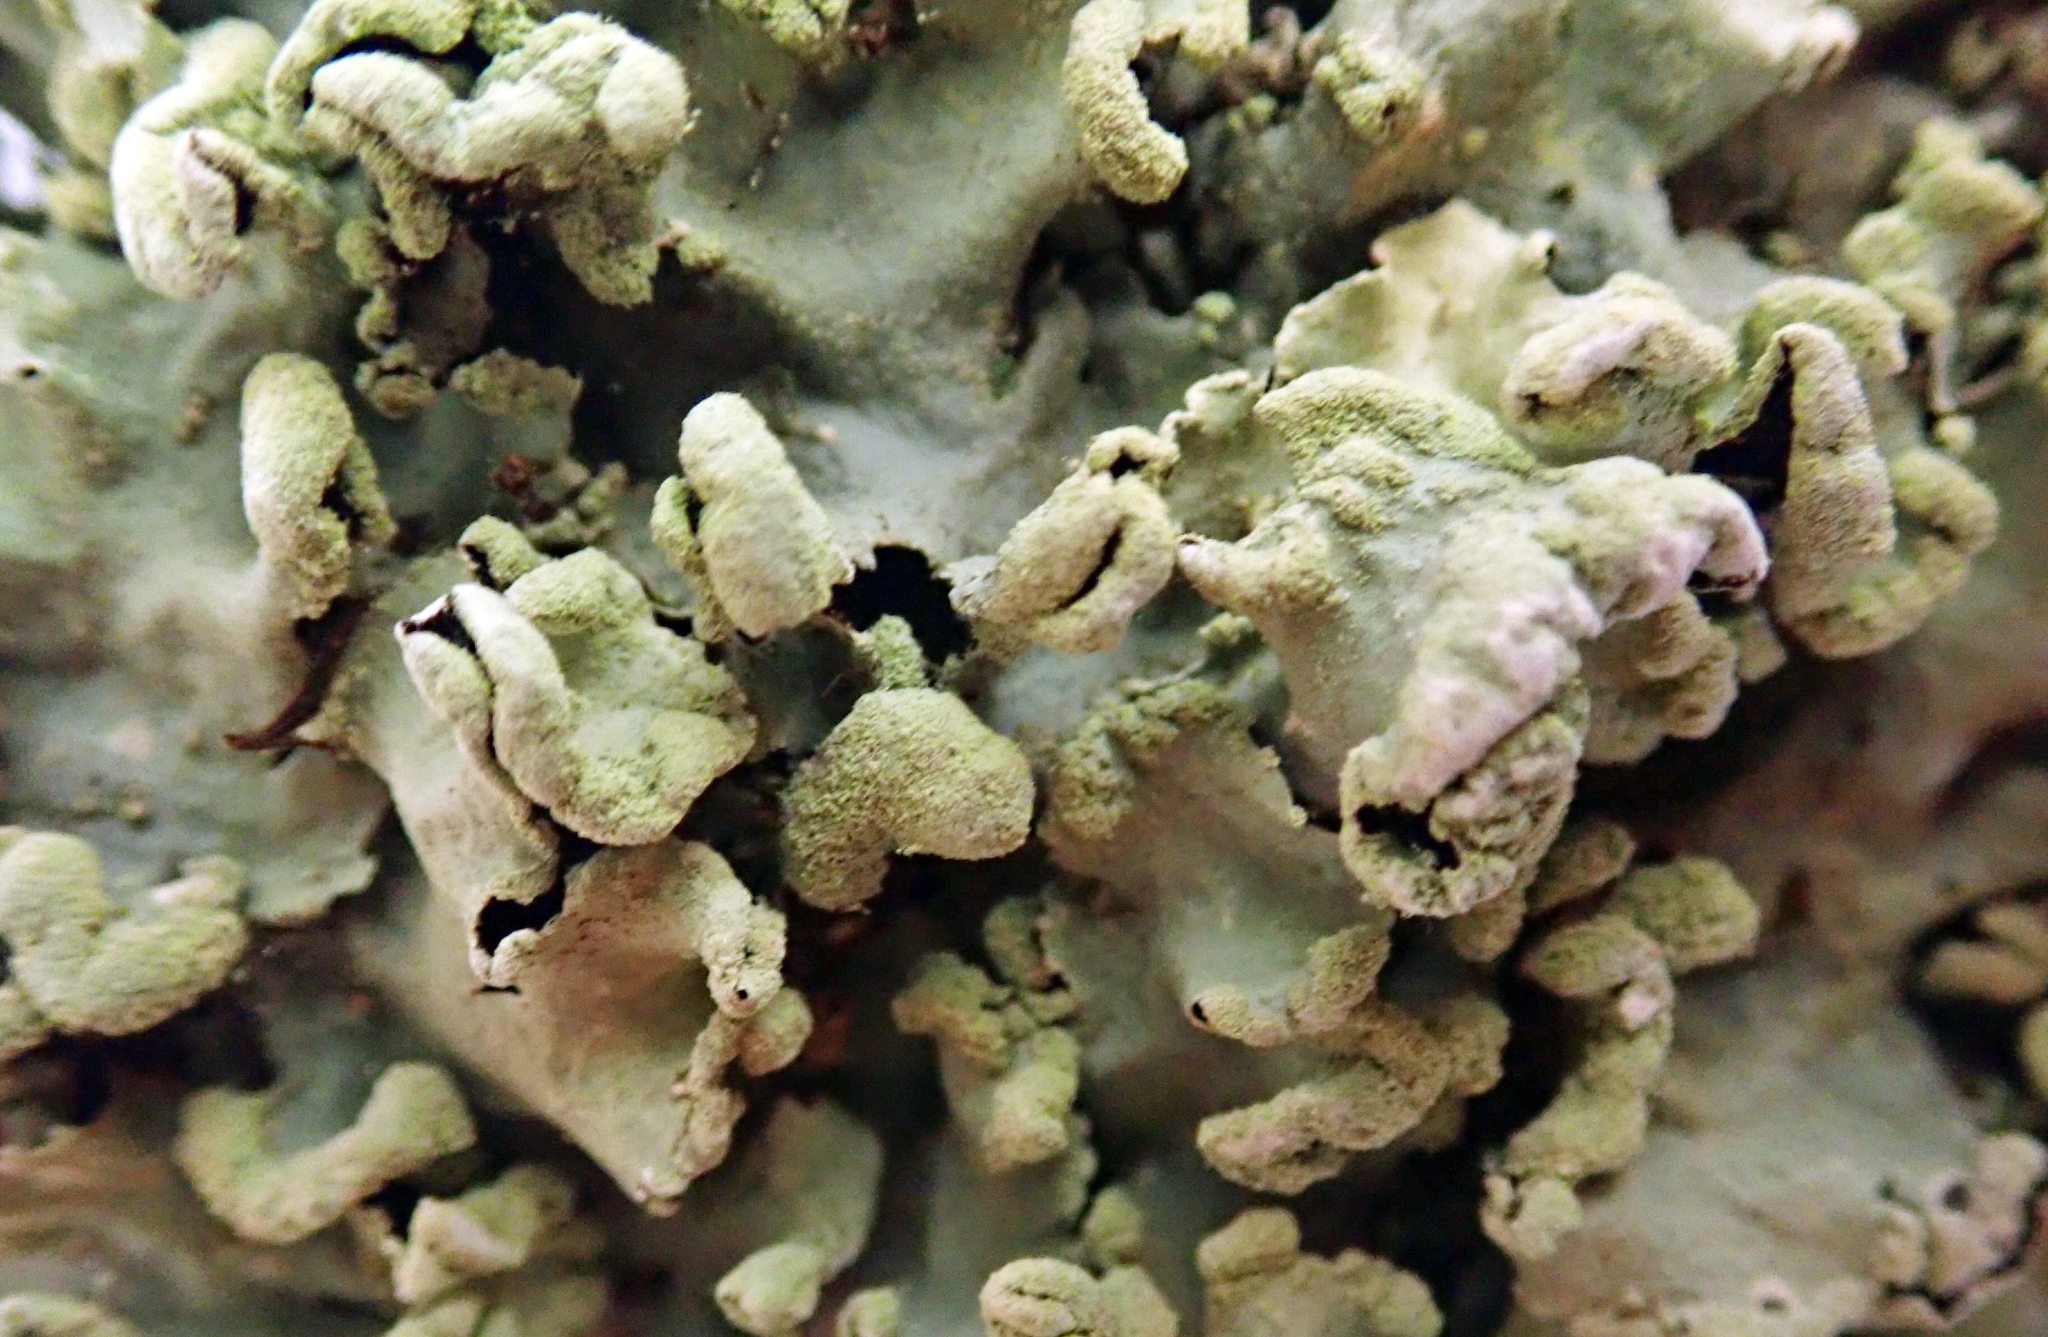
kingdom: Fungi
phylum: Ascomycota
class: Lecanoromycetes
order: Lecanorales
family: Parmeliaceae
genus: Parmotrema
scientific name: Parmotrema perlatum
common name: Black stone flower
